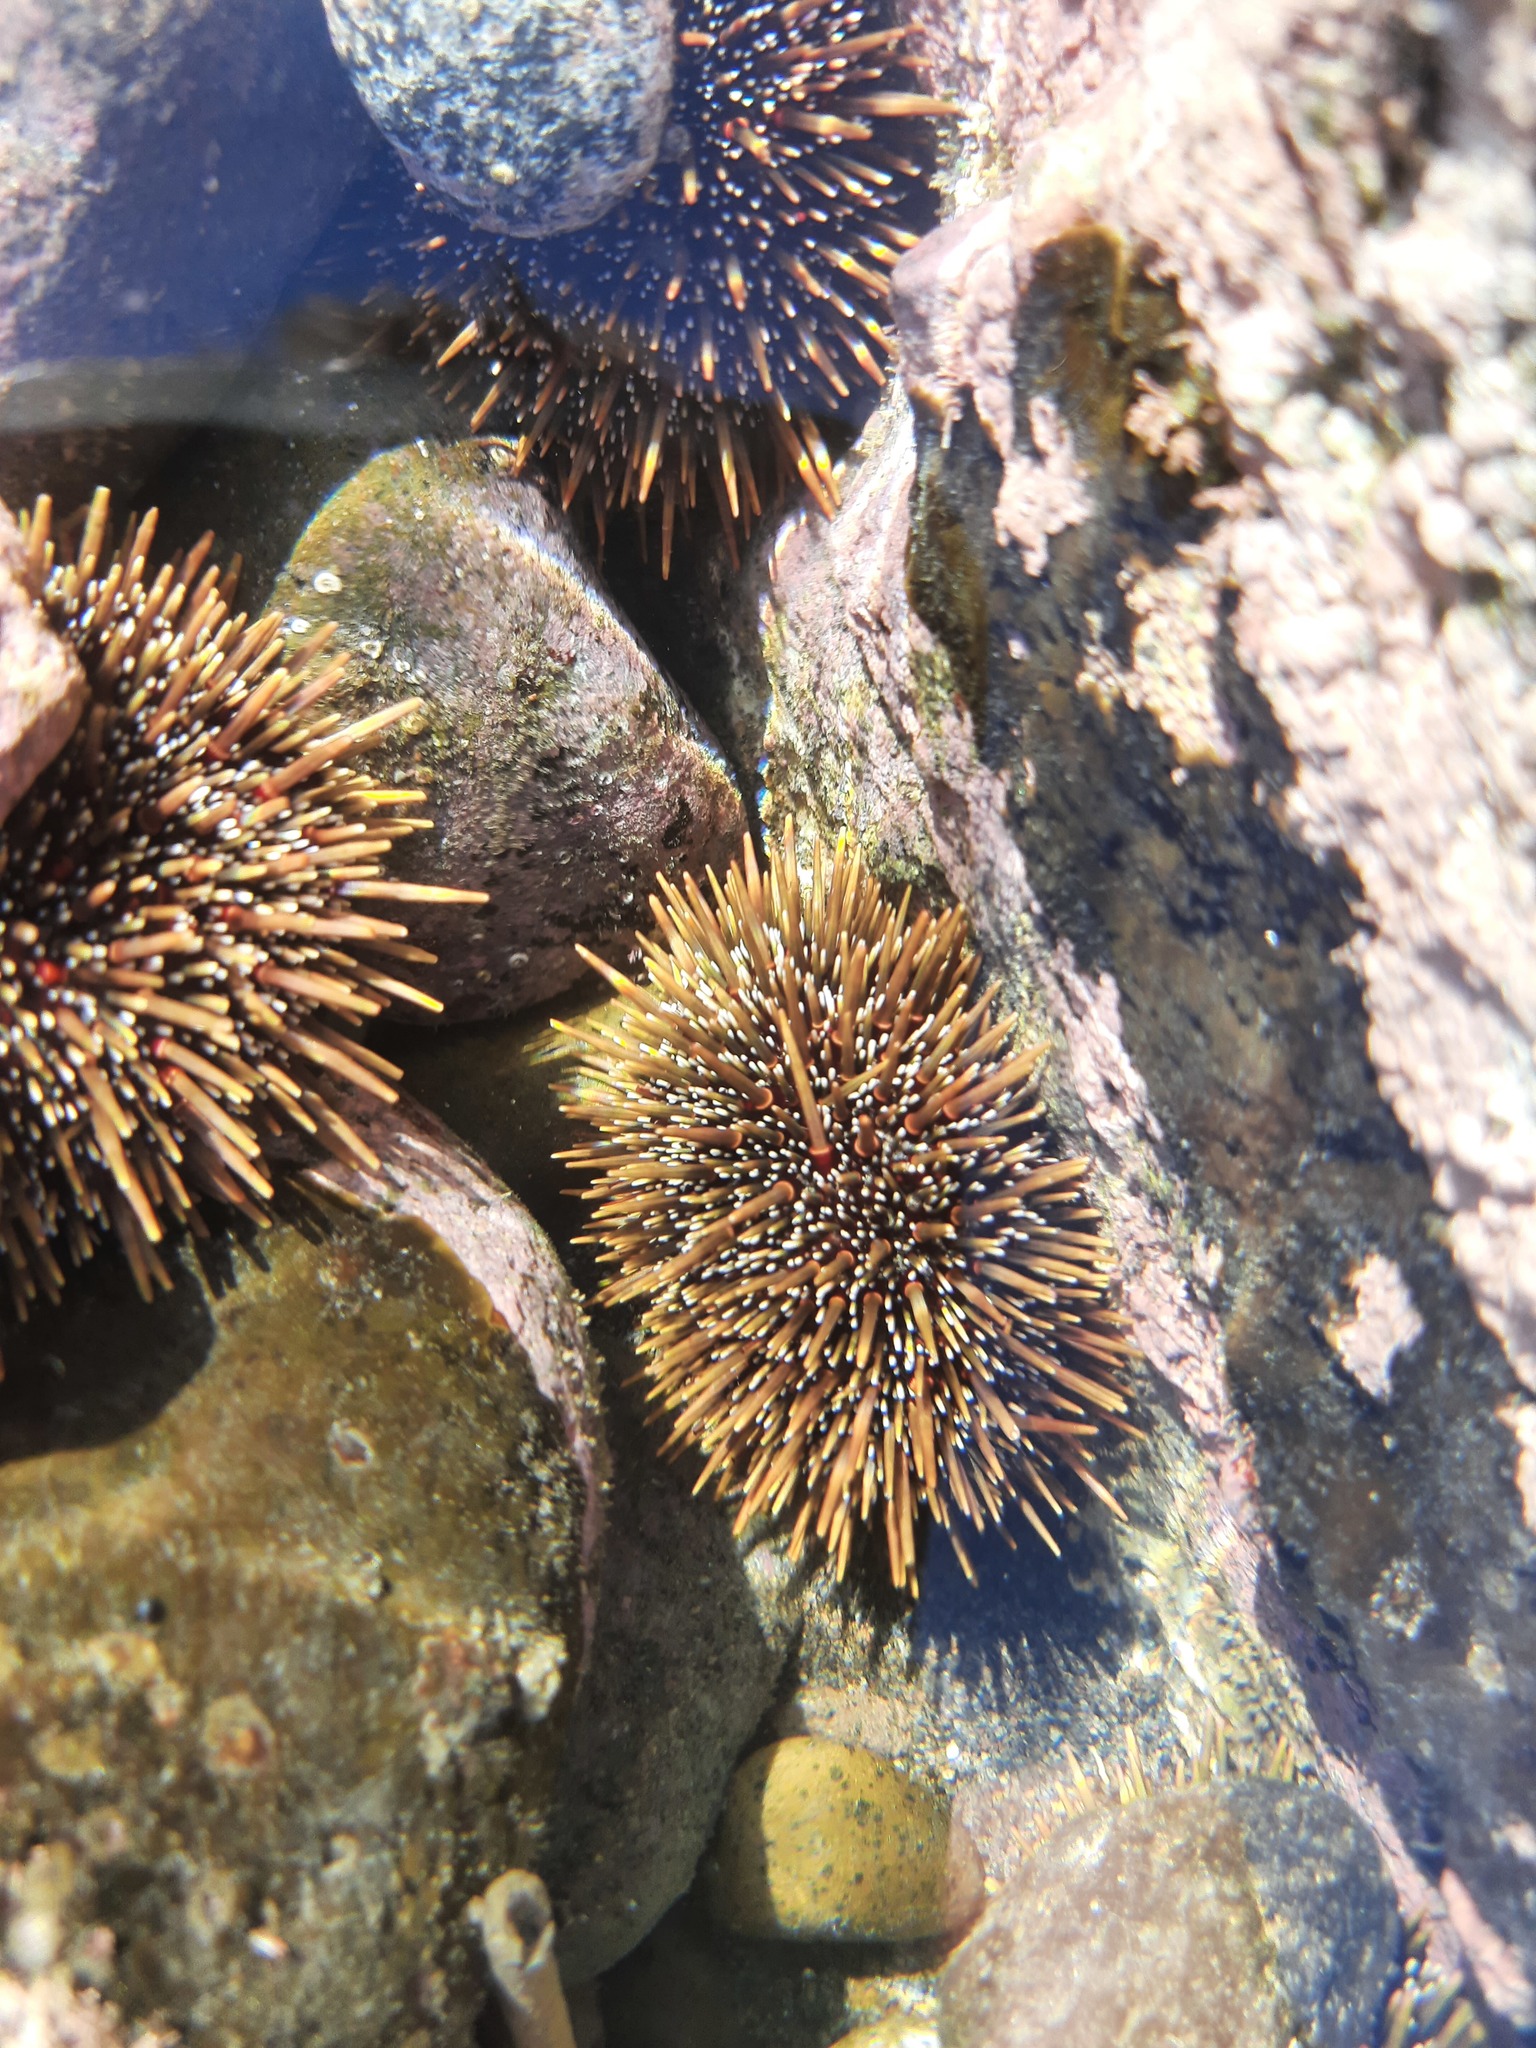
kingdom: Animalia
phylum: Echinodermata
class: Echinoidea
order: Camarodonta
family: Echinometridae
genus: Evechinus
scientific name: Evechinus chloroticus
